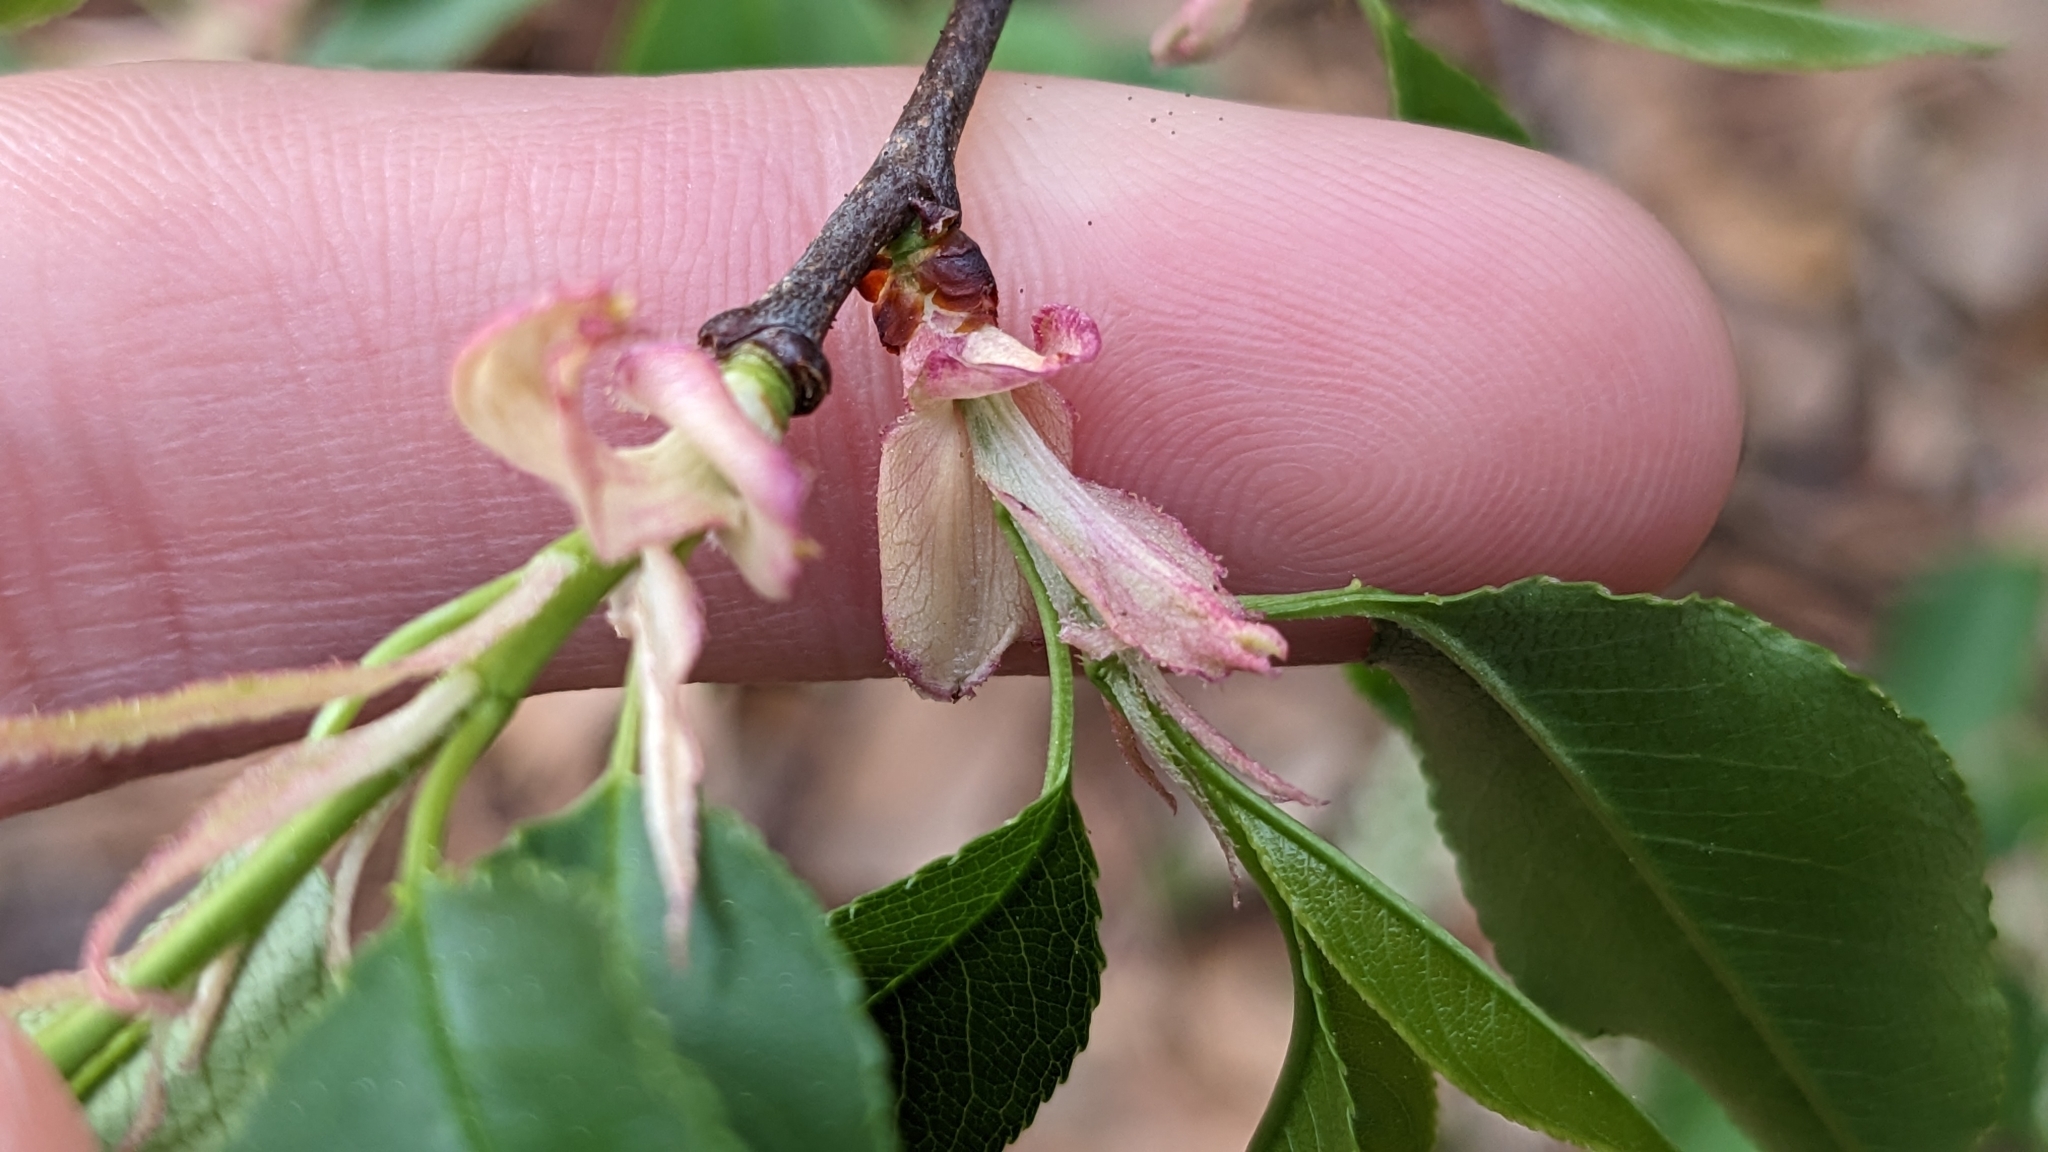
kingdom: Plantae
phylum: Tracheophyta
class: Magnoliopsida
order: Rosales
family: Rosaceae
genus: Prunus
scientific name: Prunus serotina
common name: Black cherry
